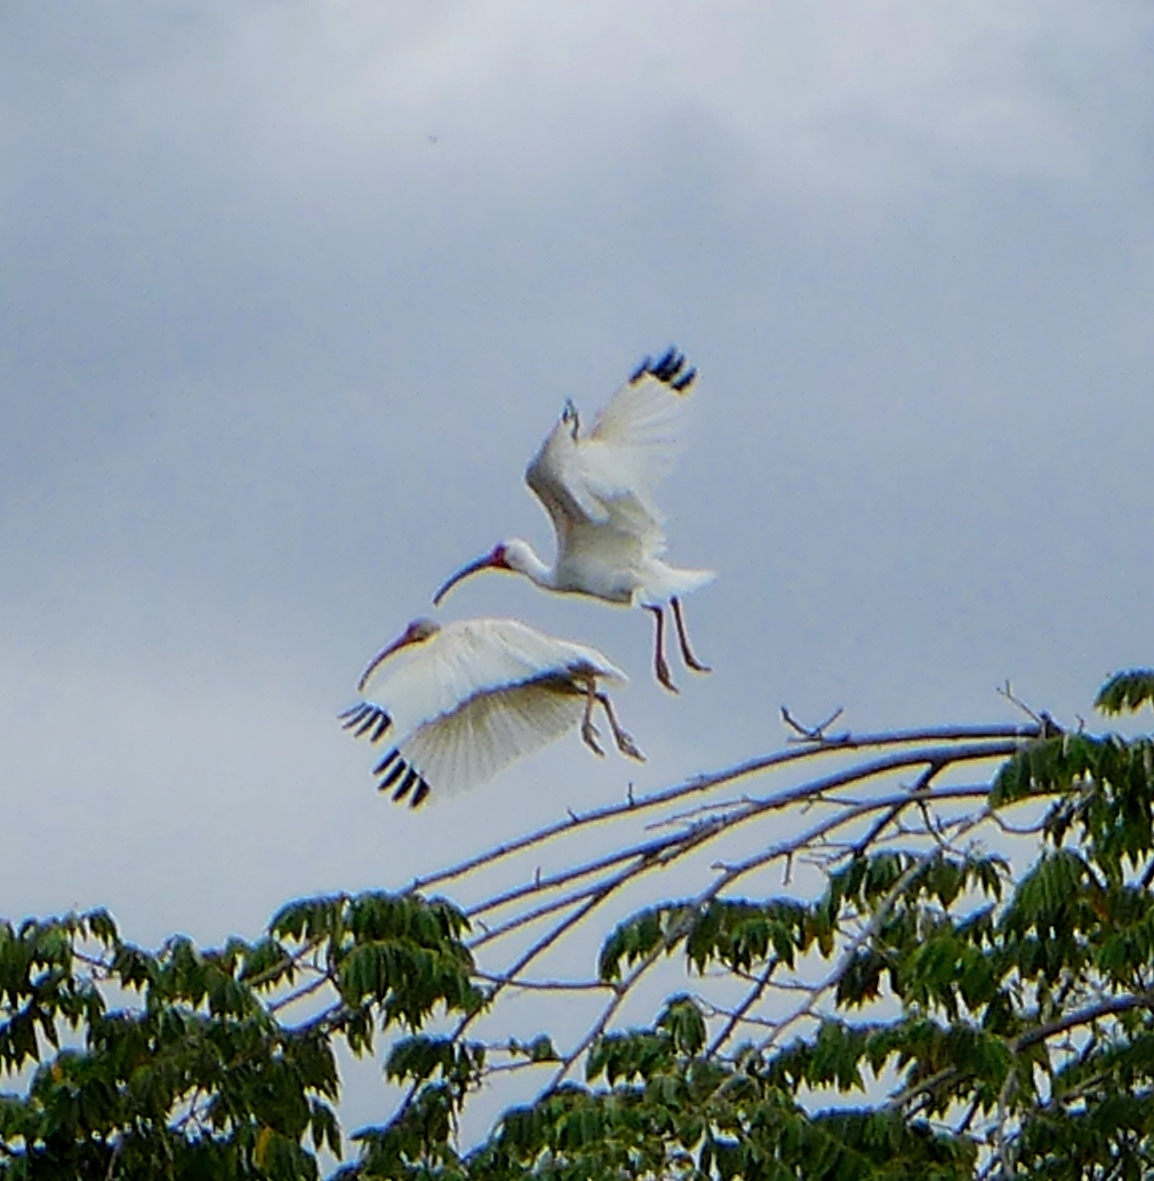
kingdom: Animalia
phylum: Chordata
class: Aves
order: Pelecaniformes
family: Threskiornithidae
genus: Eudocimus
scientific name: Eudocimus albus
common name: White ibis
